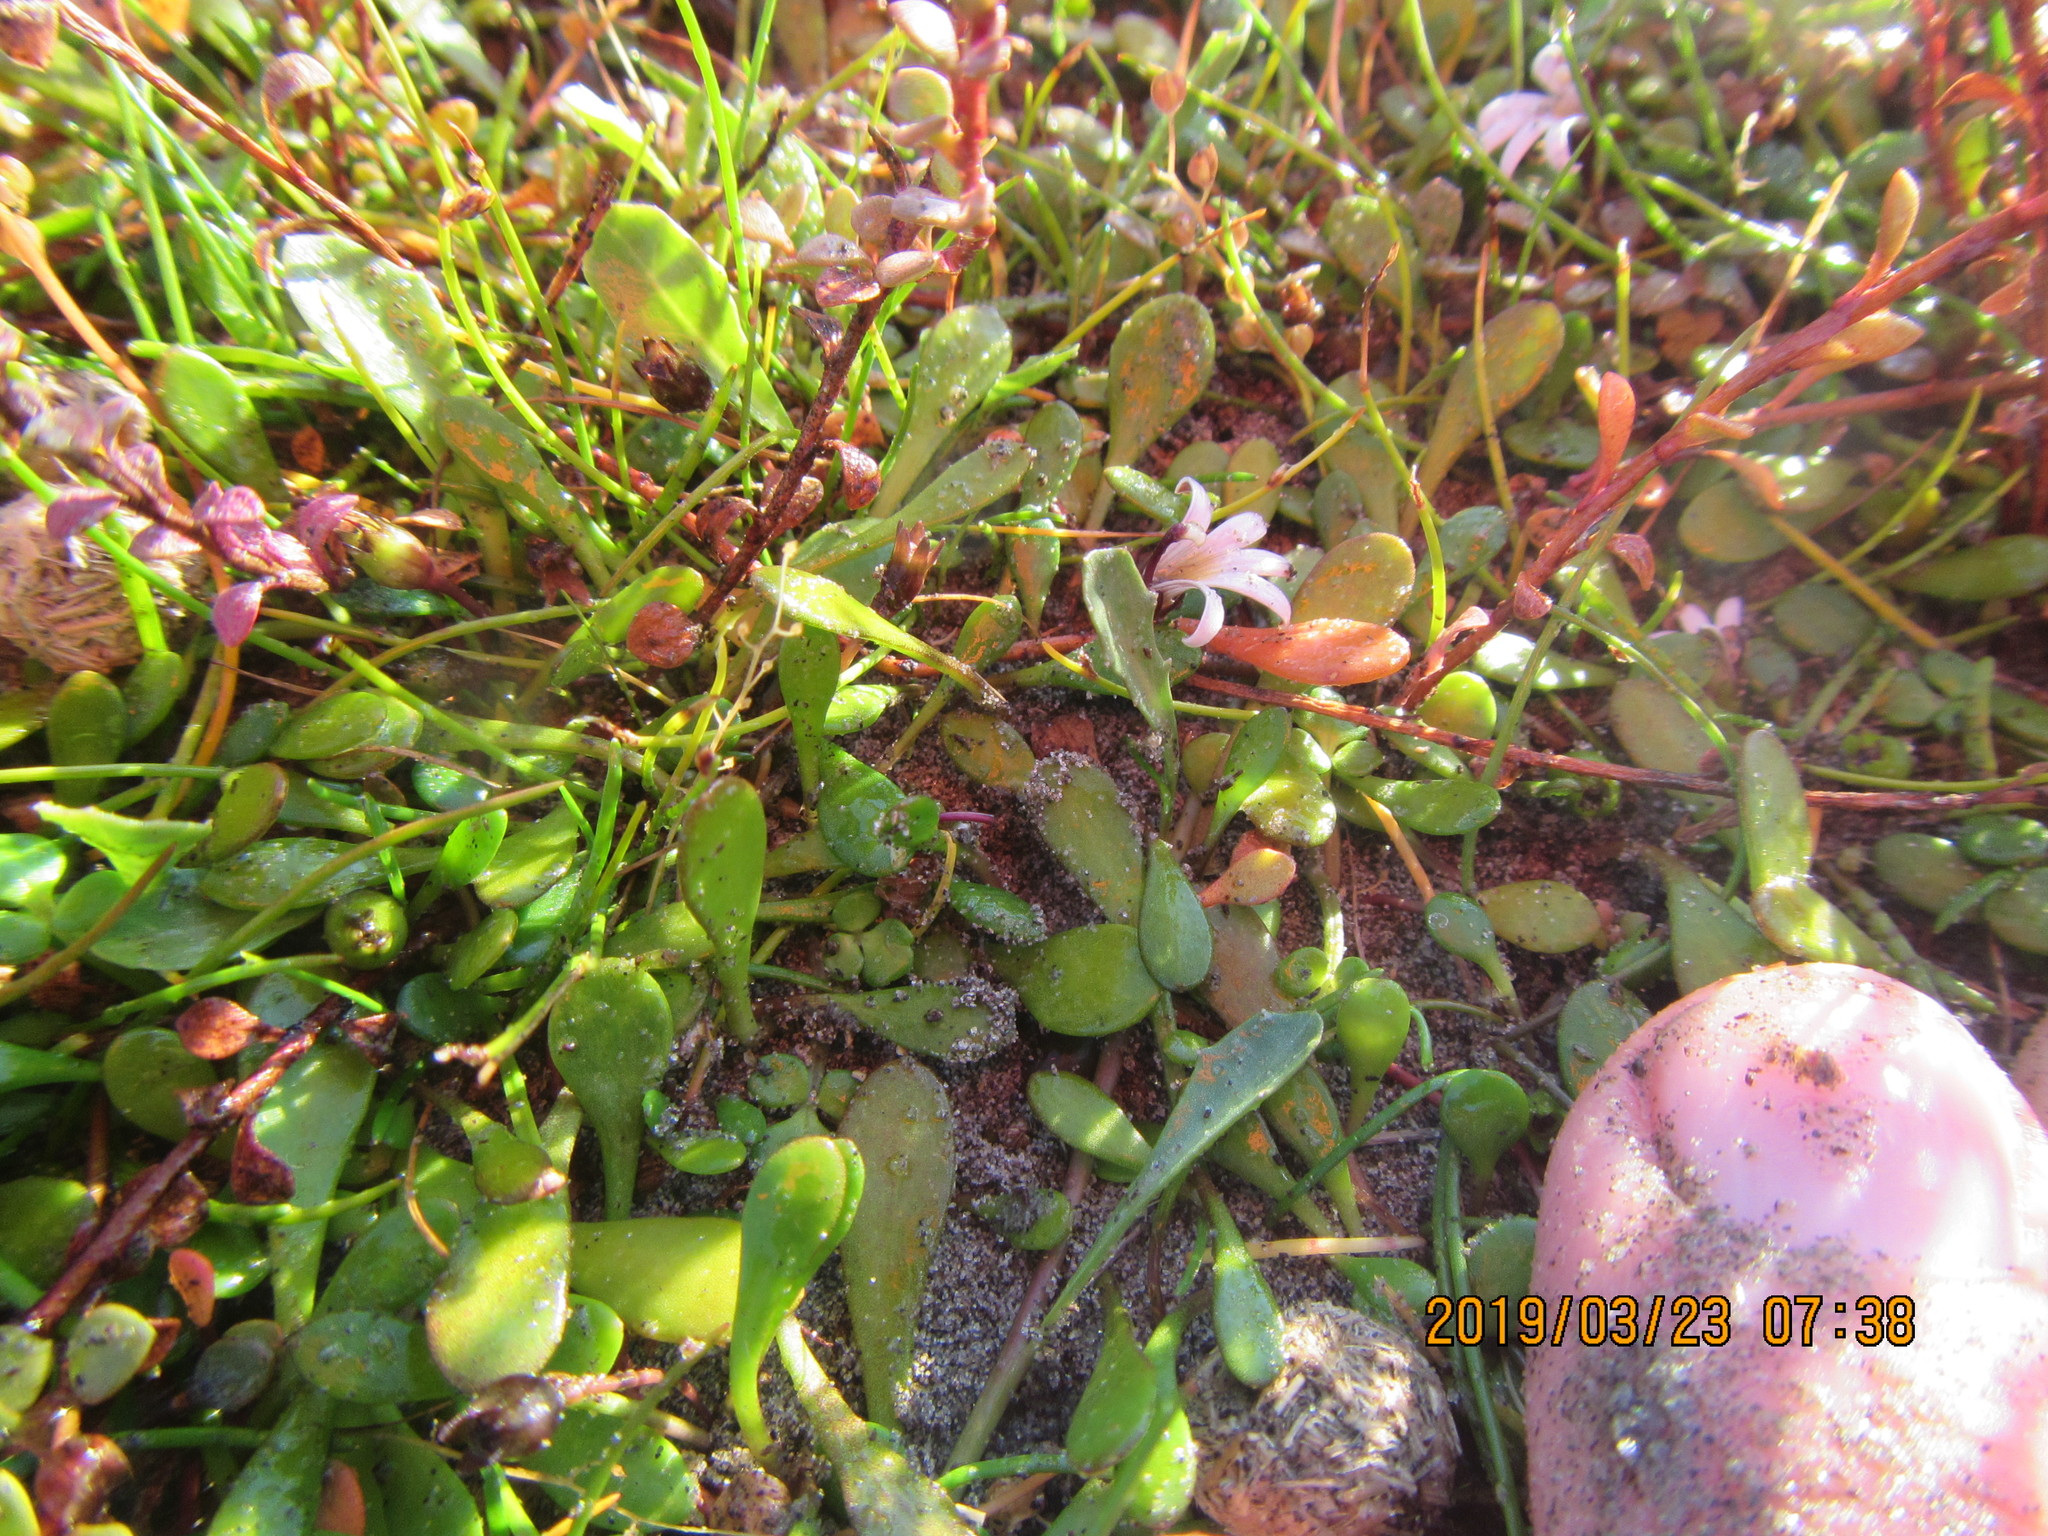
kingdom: Plantae
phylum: Tracheophyta
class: Magnoliopsida
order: Asterales
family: Goodeniaceae
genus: Goodenia
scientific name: Goodenia radicans
